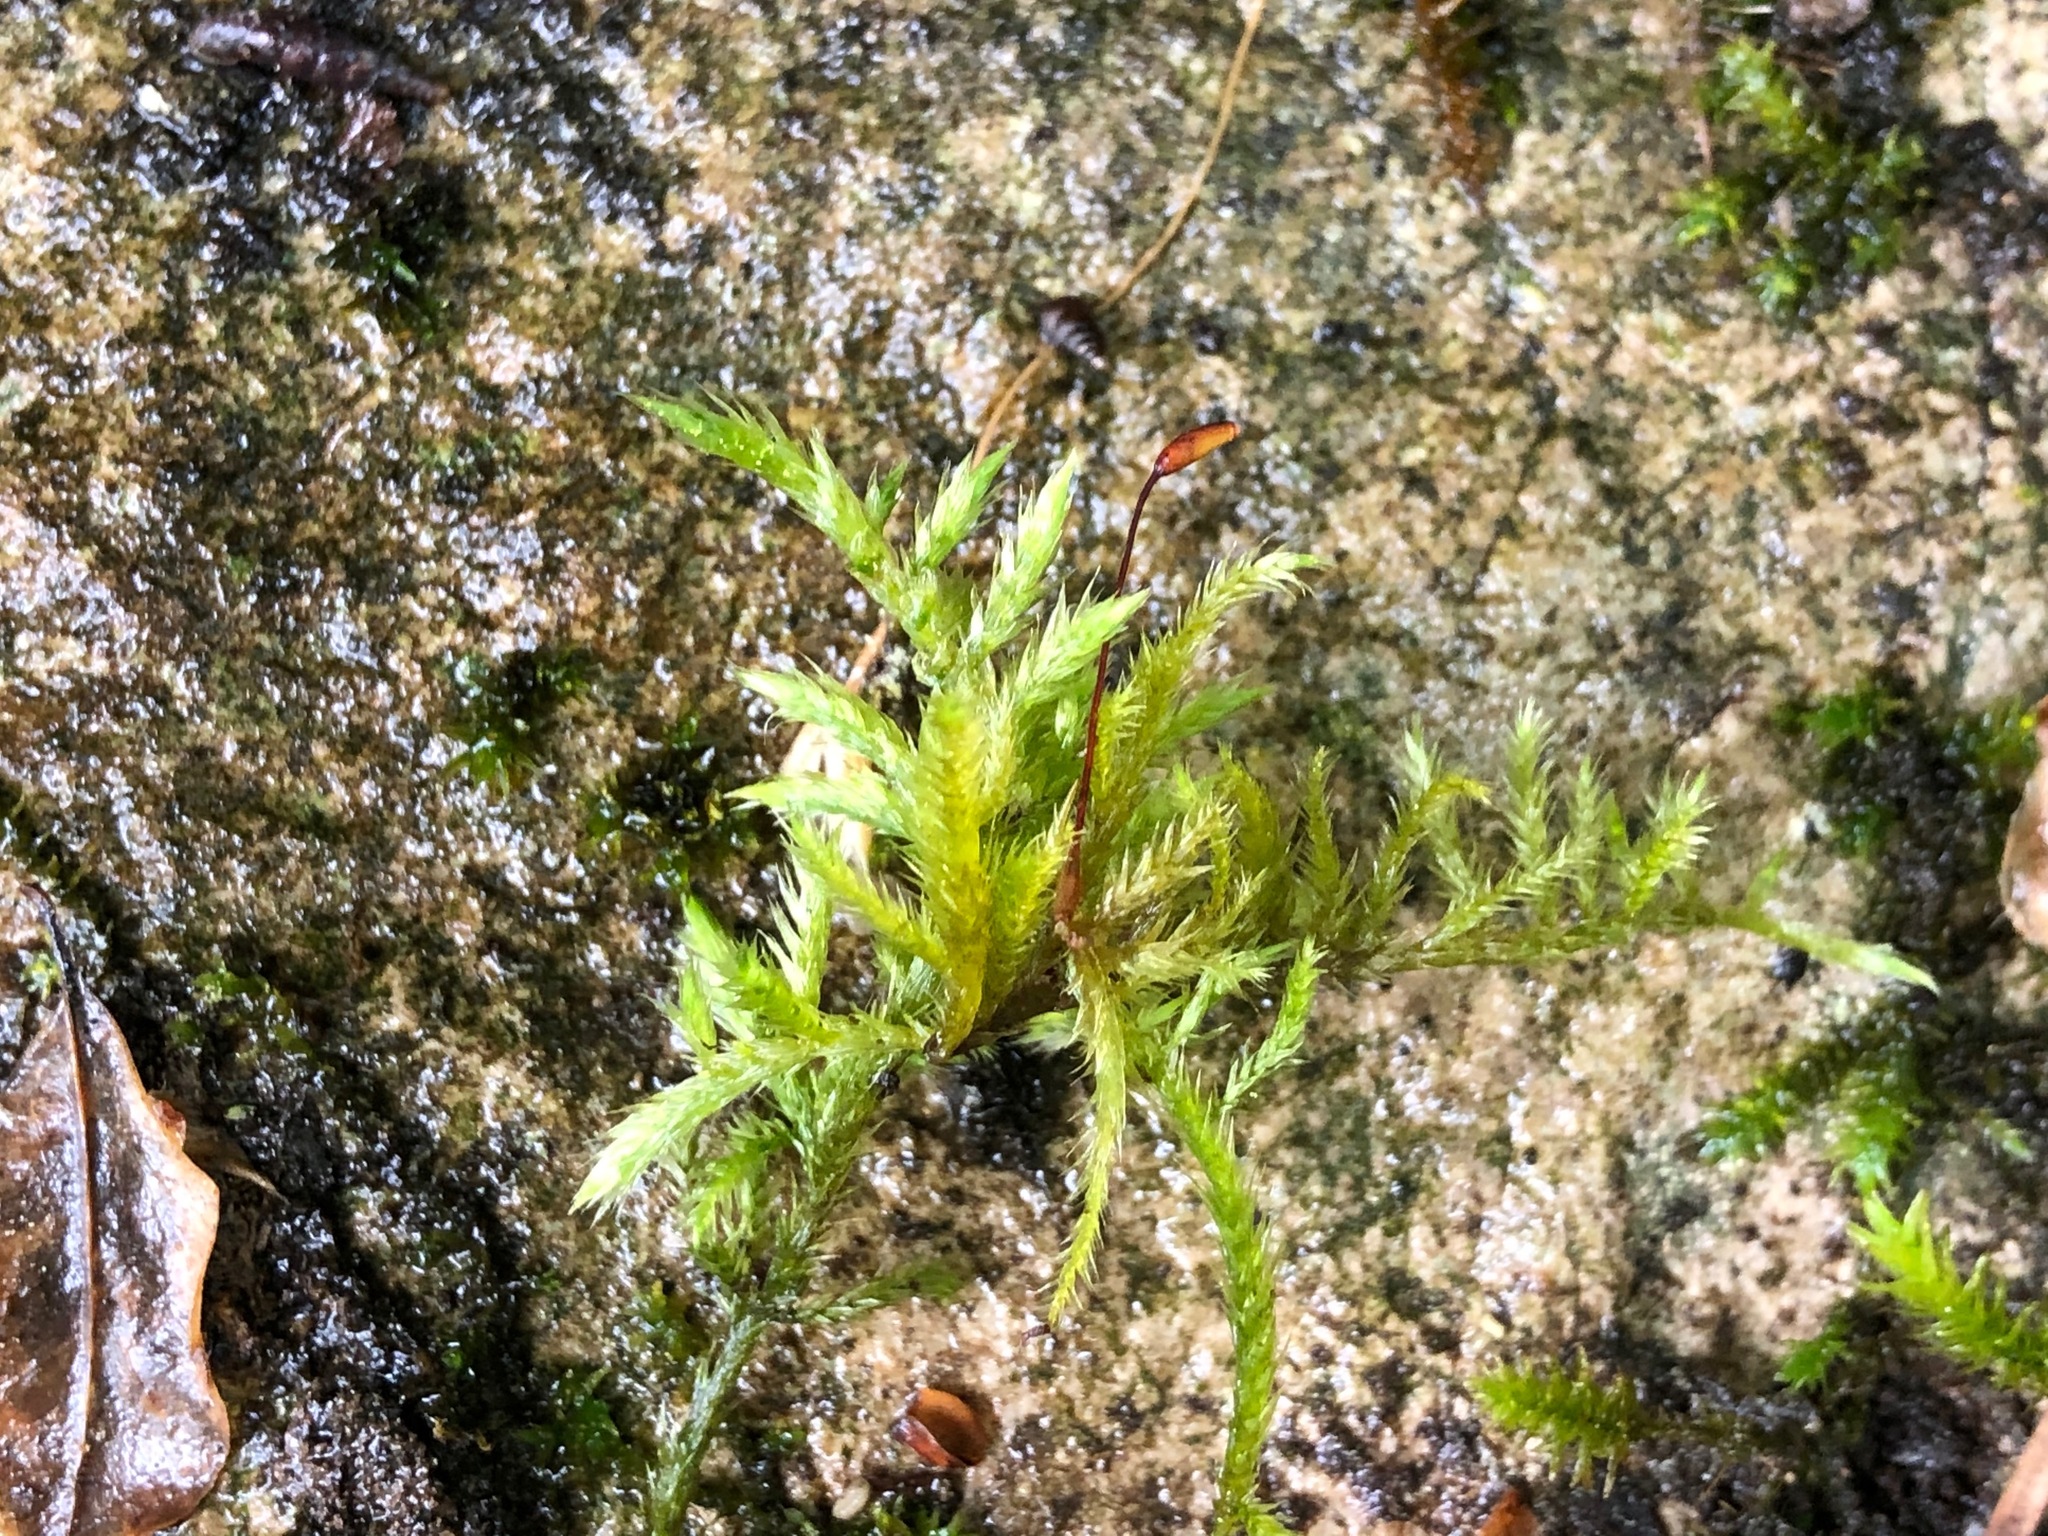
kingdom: Plantae
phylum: Bryophyta
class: Bryopsida
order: Hypnales
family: Brachytheciaceae
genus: Sciuro-hypnum
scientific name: Sciuro-hypnum populeum
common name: Matted feather-moss
